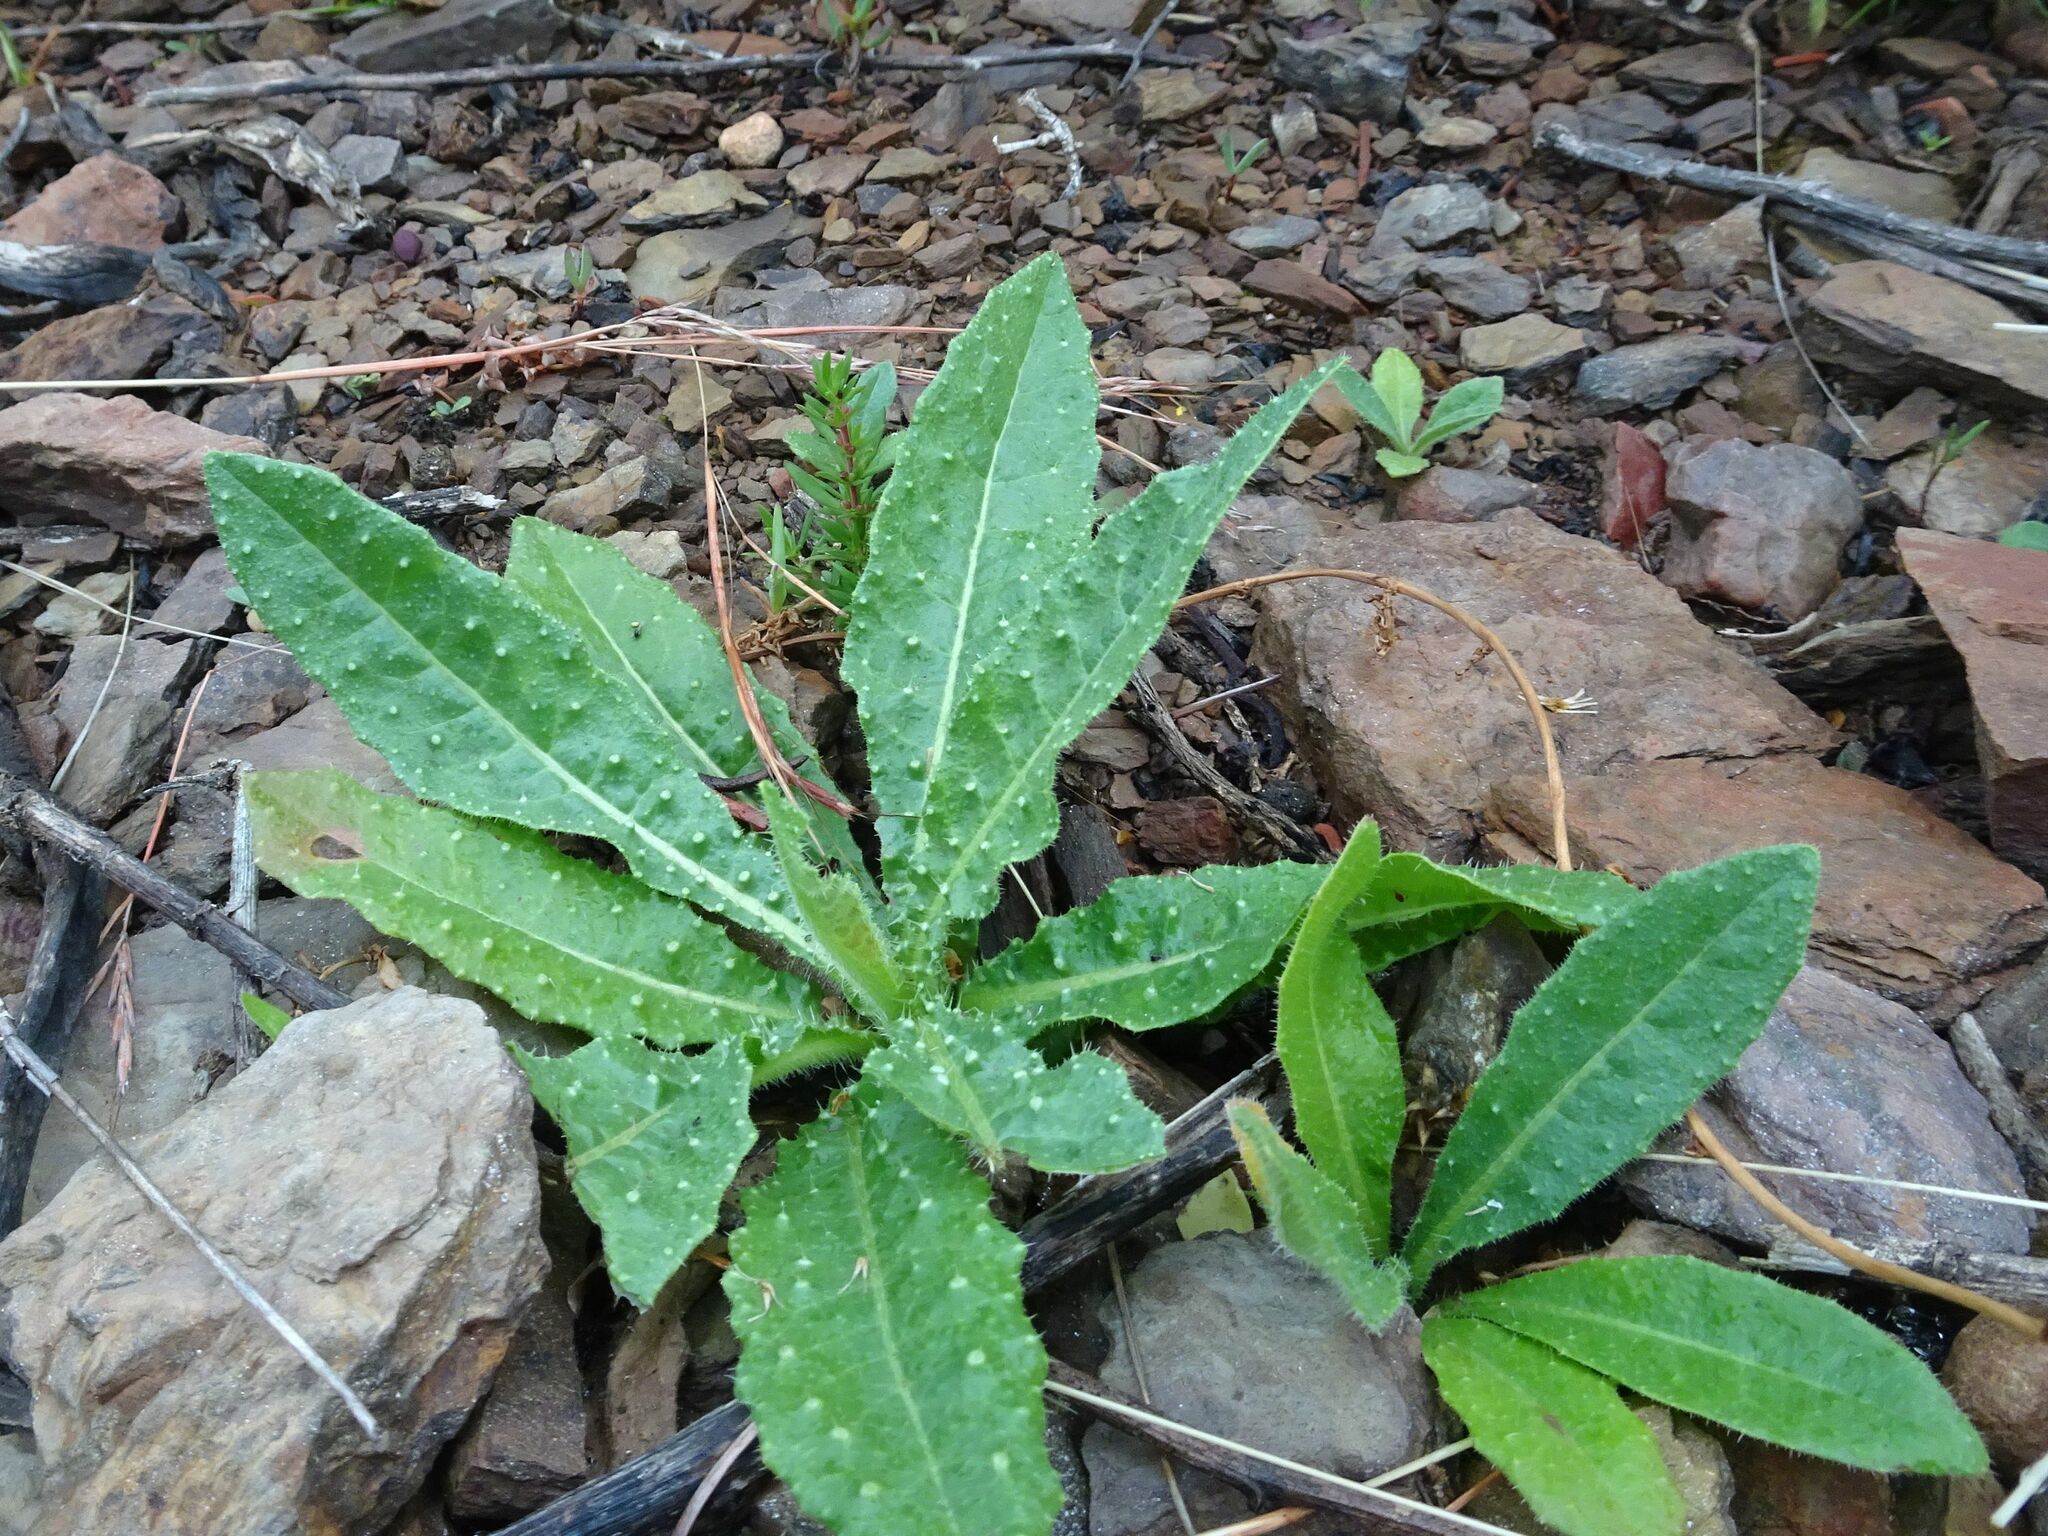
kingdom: Plantae
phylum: Tracheophyta
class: Magnoliopsida
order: Asterales
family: Asteraceae
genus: Helminthotheca
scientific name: Helminthotheca echioides
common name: Ox-tongue
